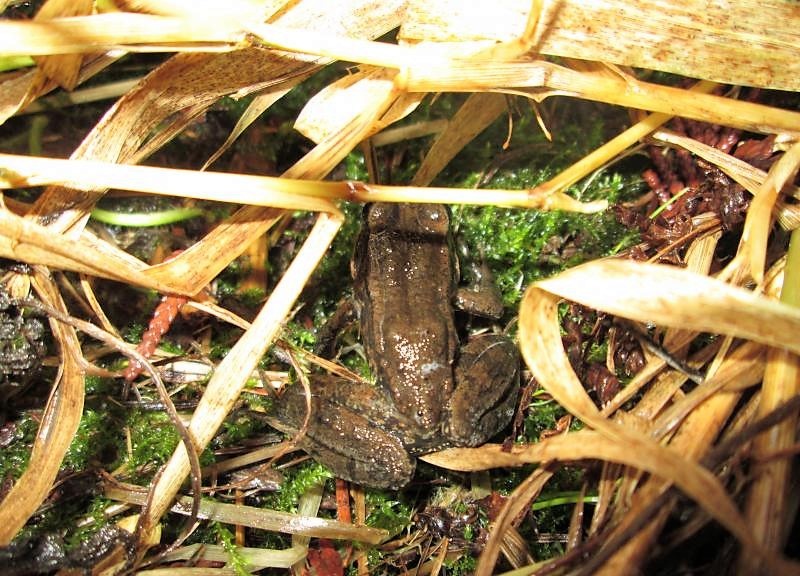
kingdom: Animalia
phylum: Chordata
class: Amphibia
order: Anura
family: Ranidae
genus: Rana
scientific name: Rana aurora
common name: Red-legged frog
